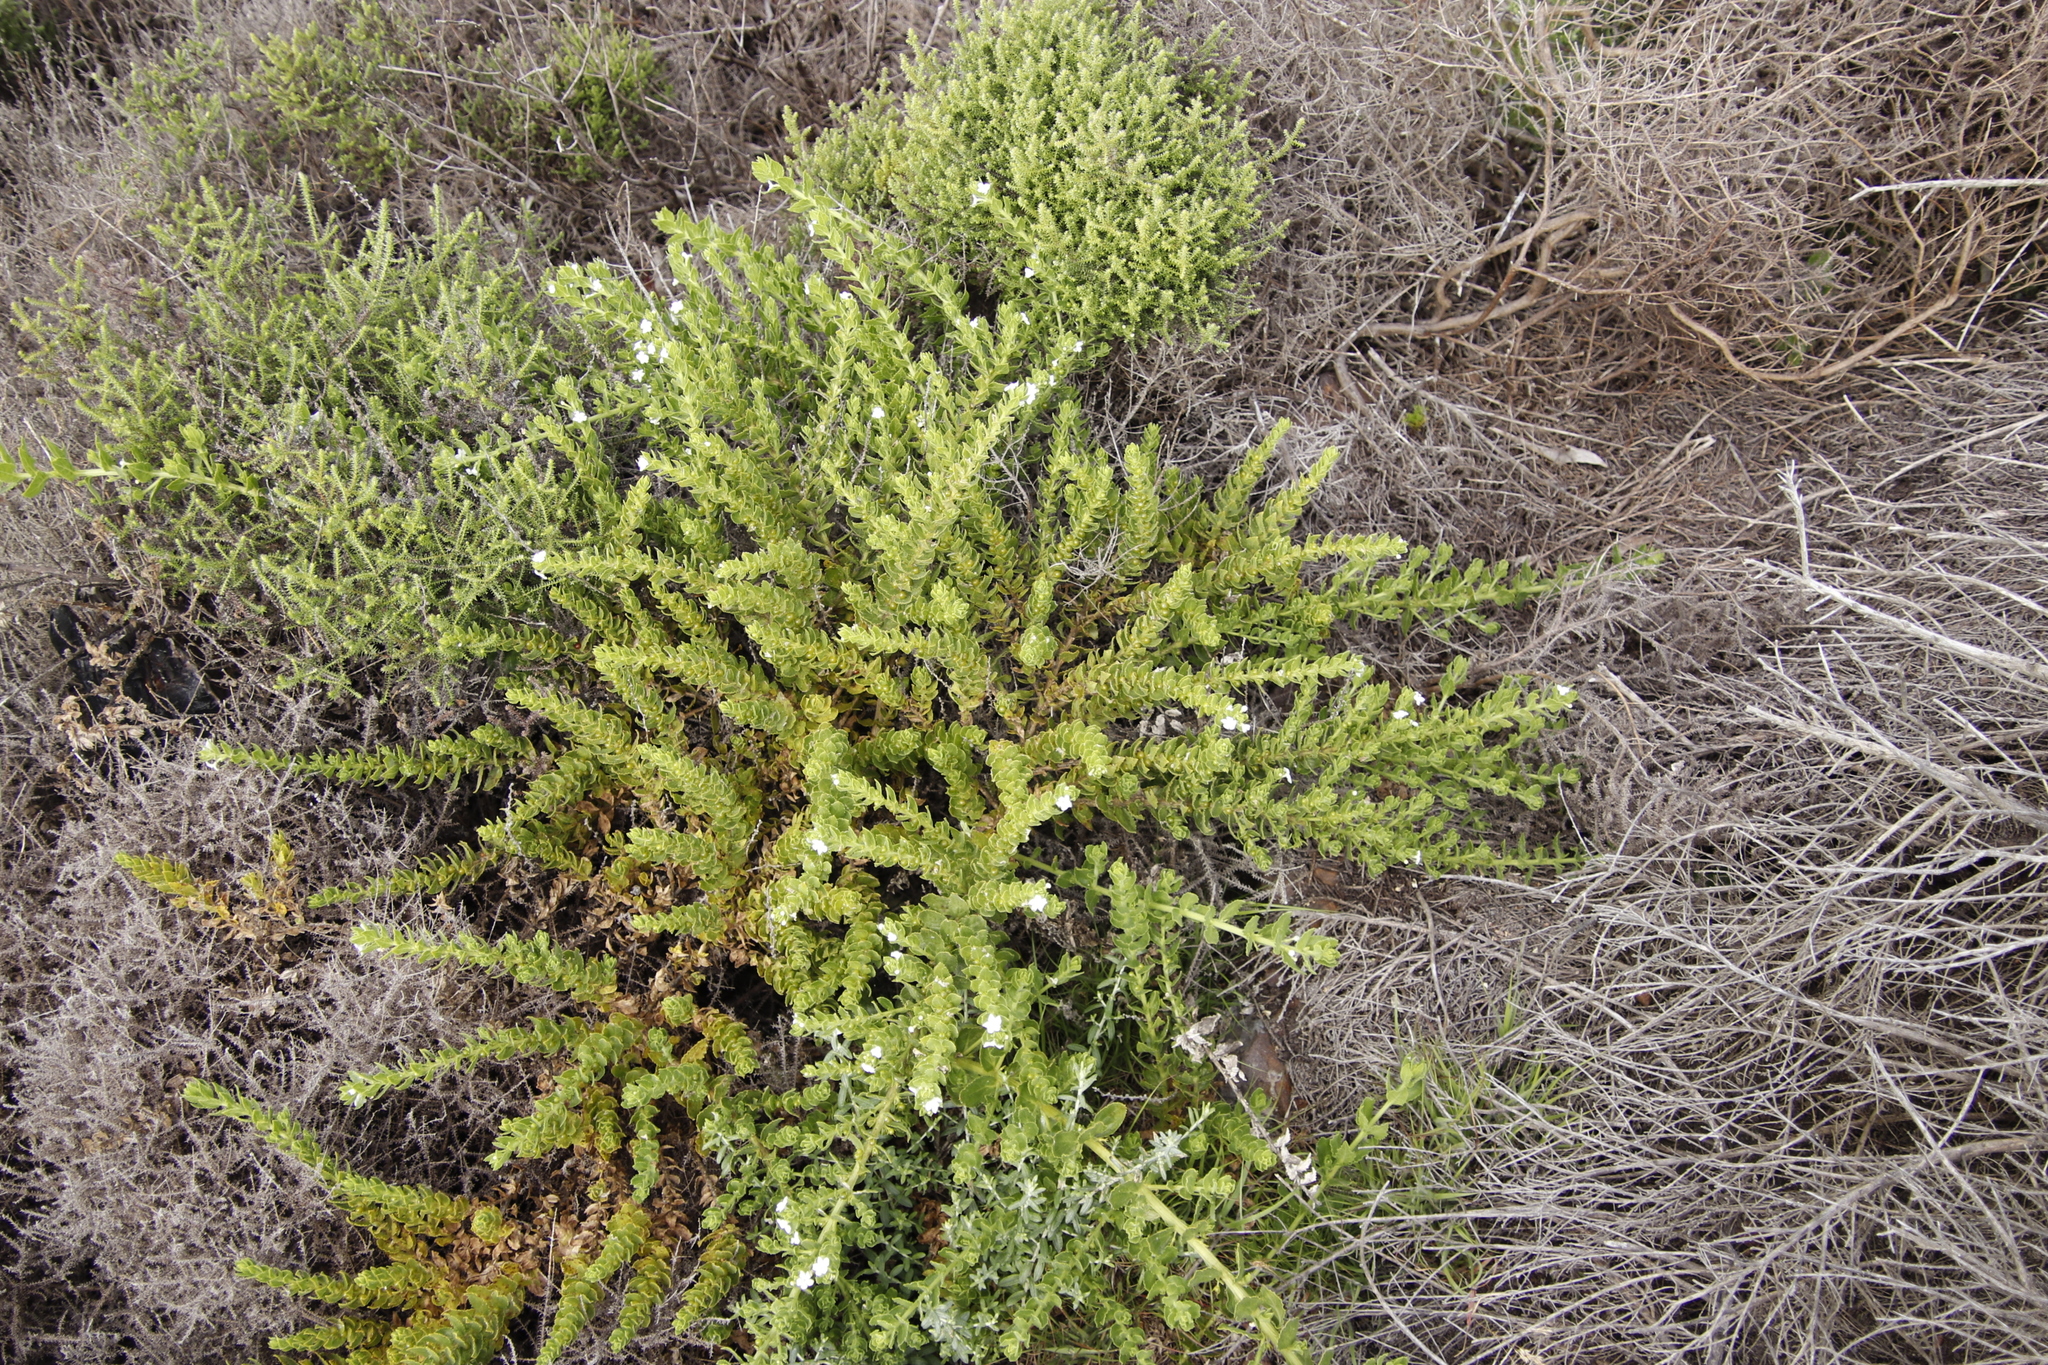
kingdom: Plantae
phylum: Tracheophyta
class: Magnoliopsida
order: Lamiales
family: Scrophulariaceae
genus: Oftia
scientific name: Oftia africana
